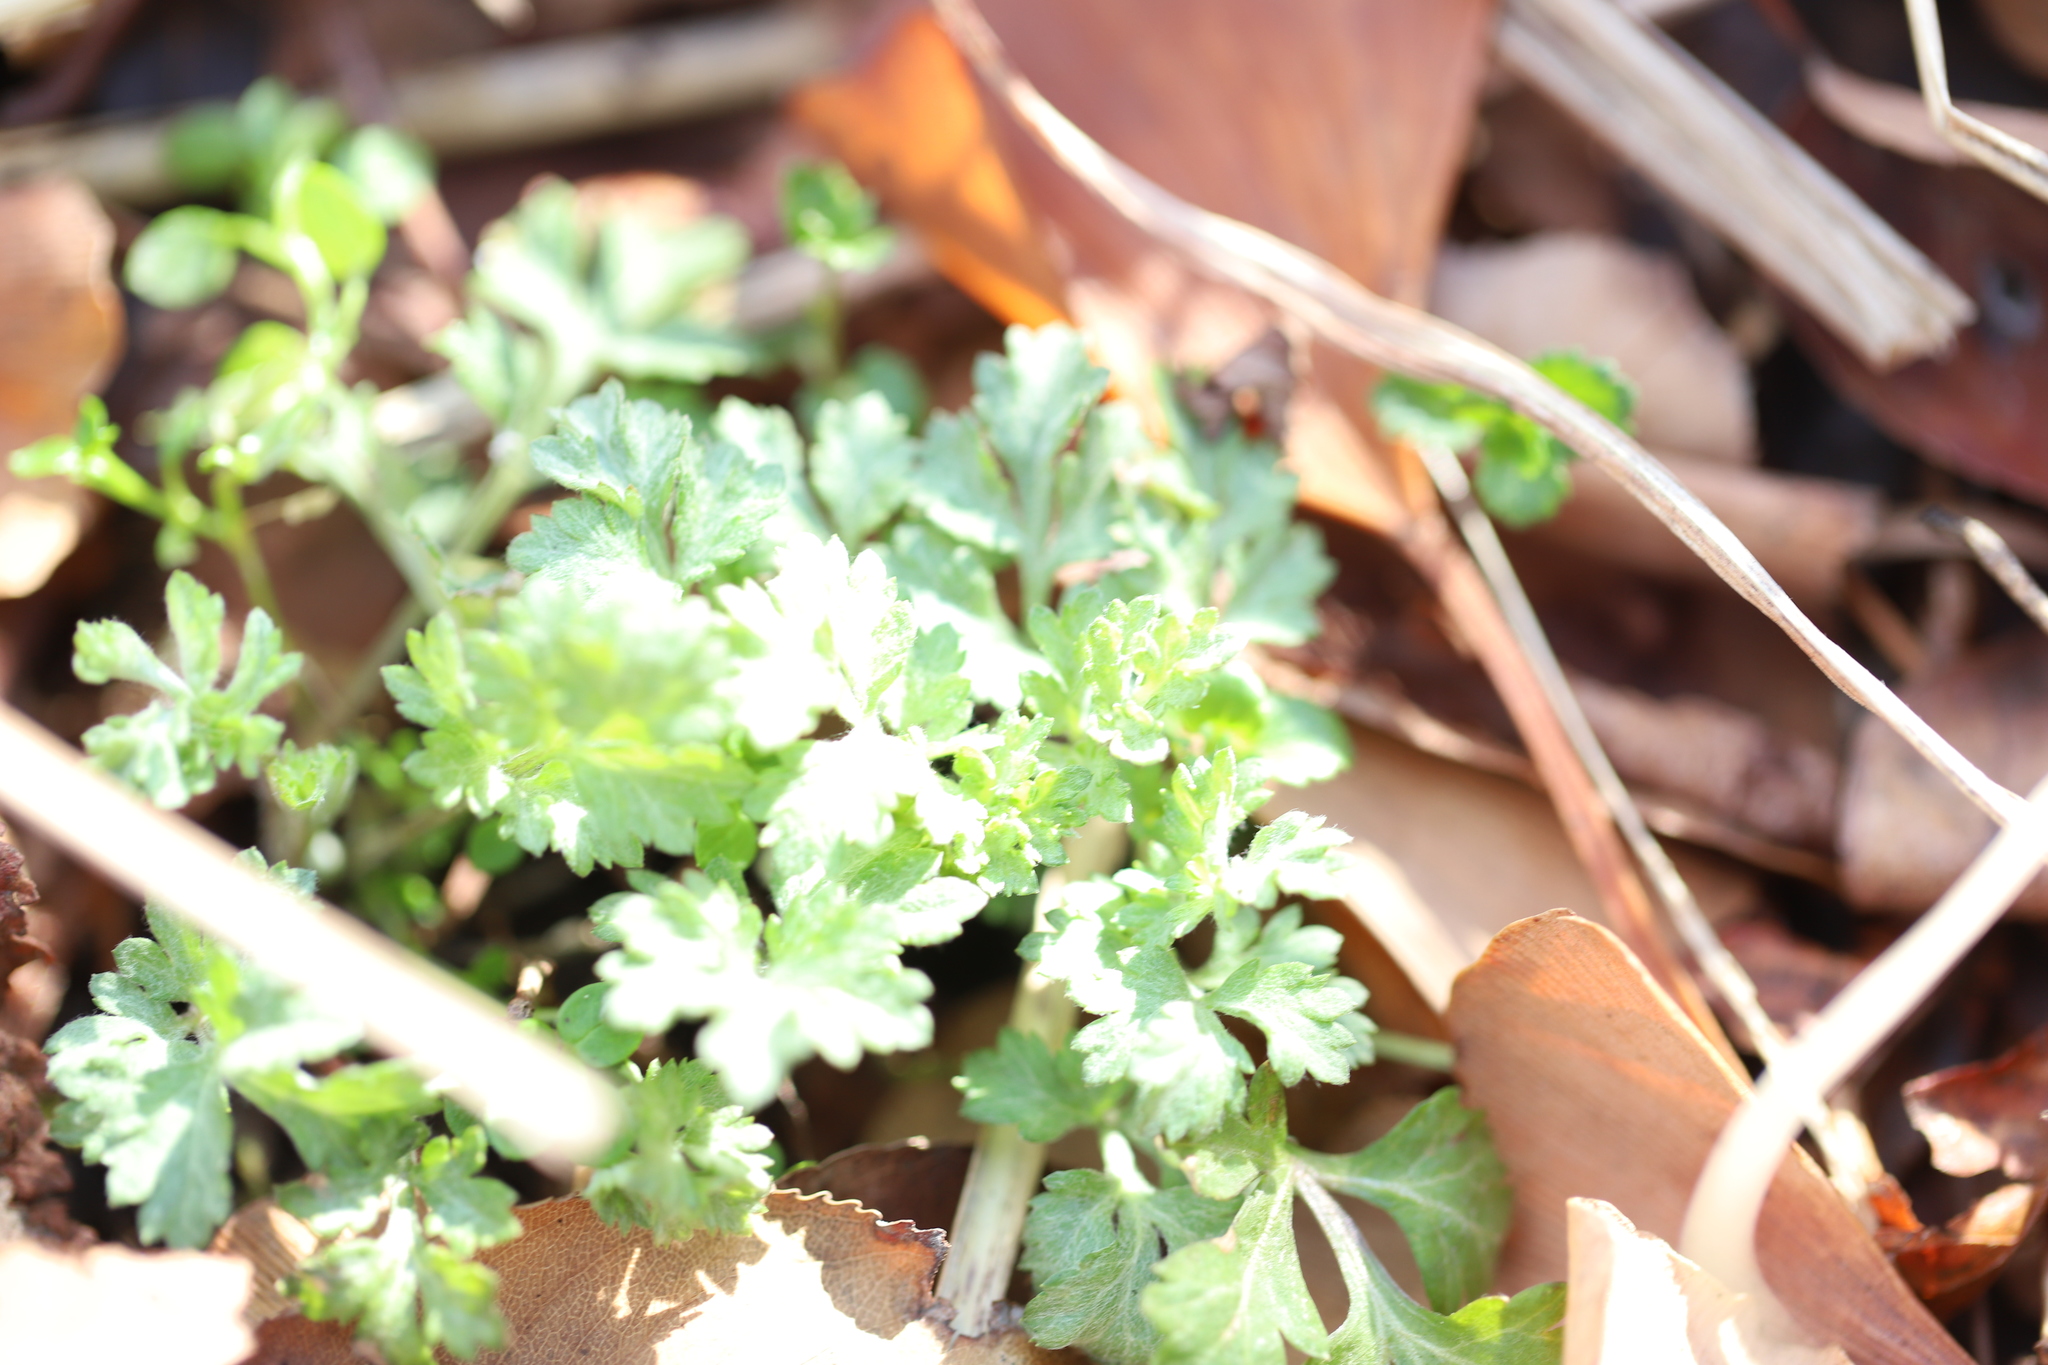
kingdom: Plantae
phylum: Tracheophyta
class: Magnoliopsida
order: Asterales
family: Asteraceae
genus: Artemisia
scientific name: Artemisia vulgaris
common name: Mugwort
